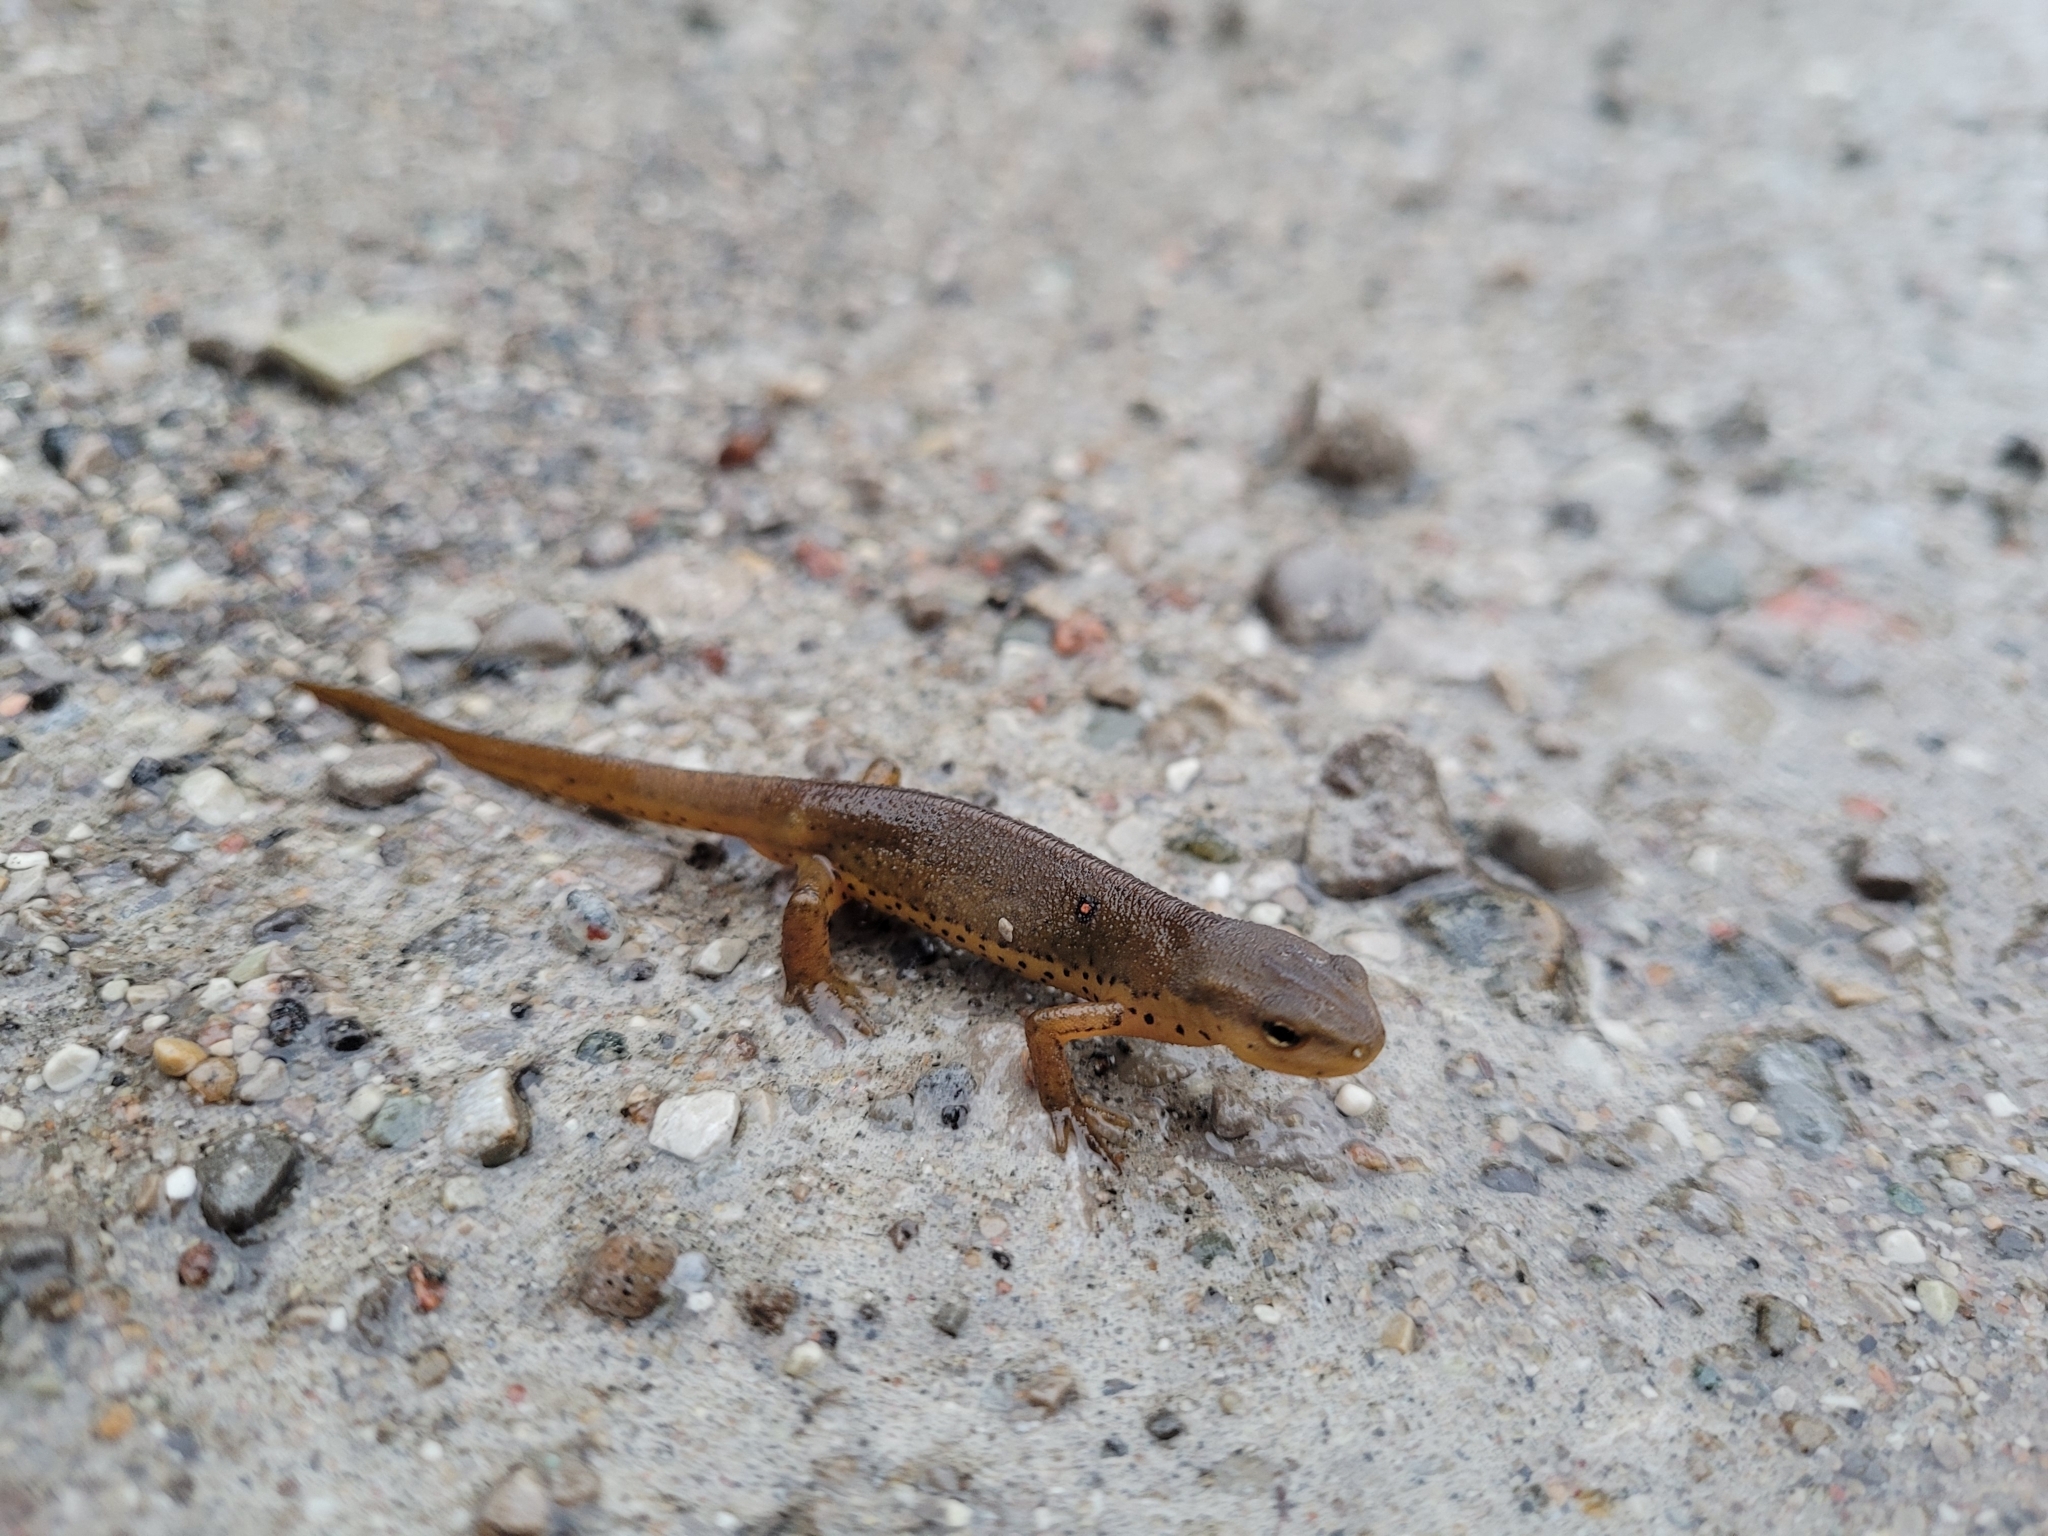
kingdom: Animalia
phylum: Chordata
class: Amphibia
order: Caudata
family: Salamandridae
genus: Notophthalmus
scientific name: Notophthalmus viridescens
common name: Eastern newt
